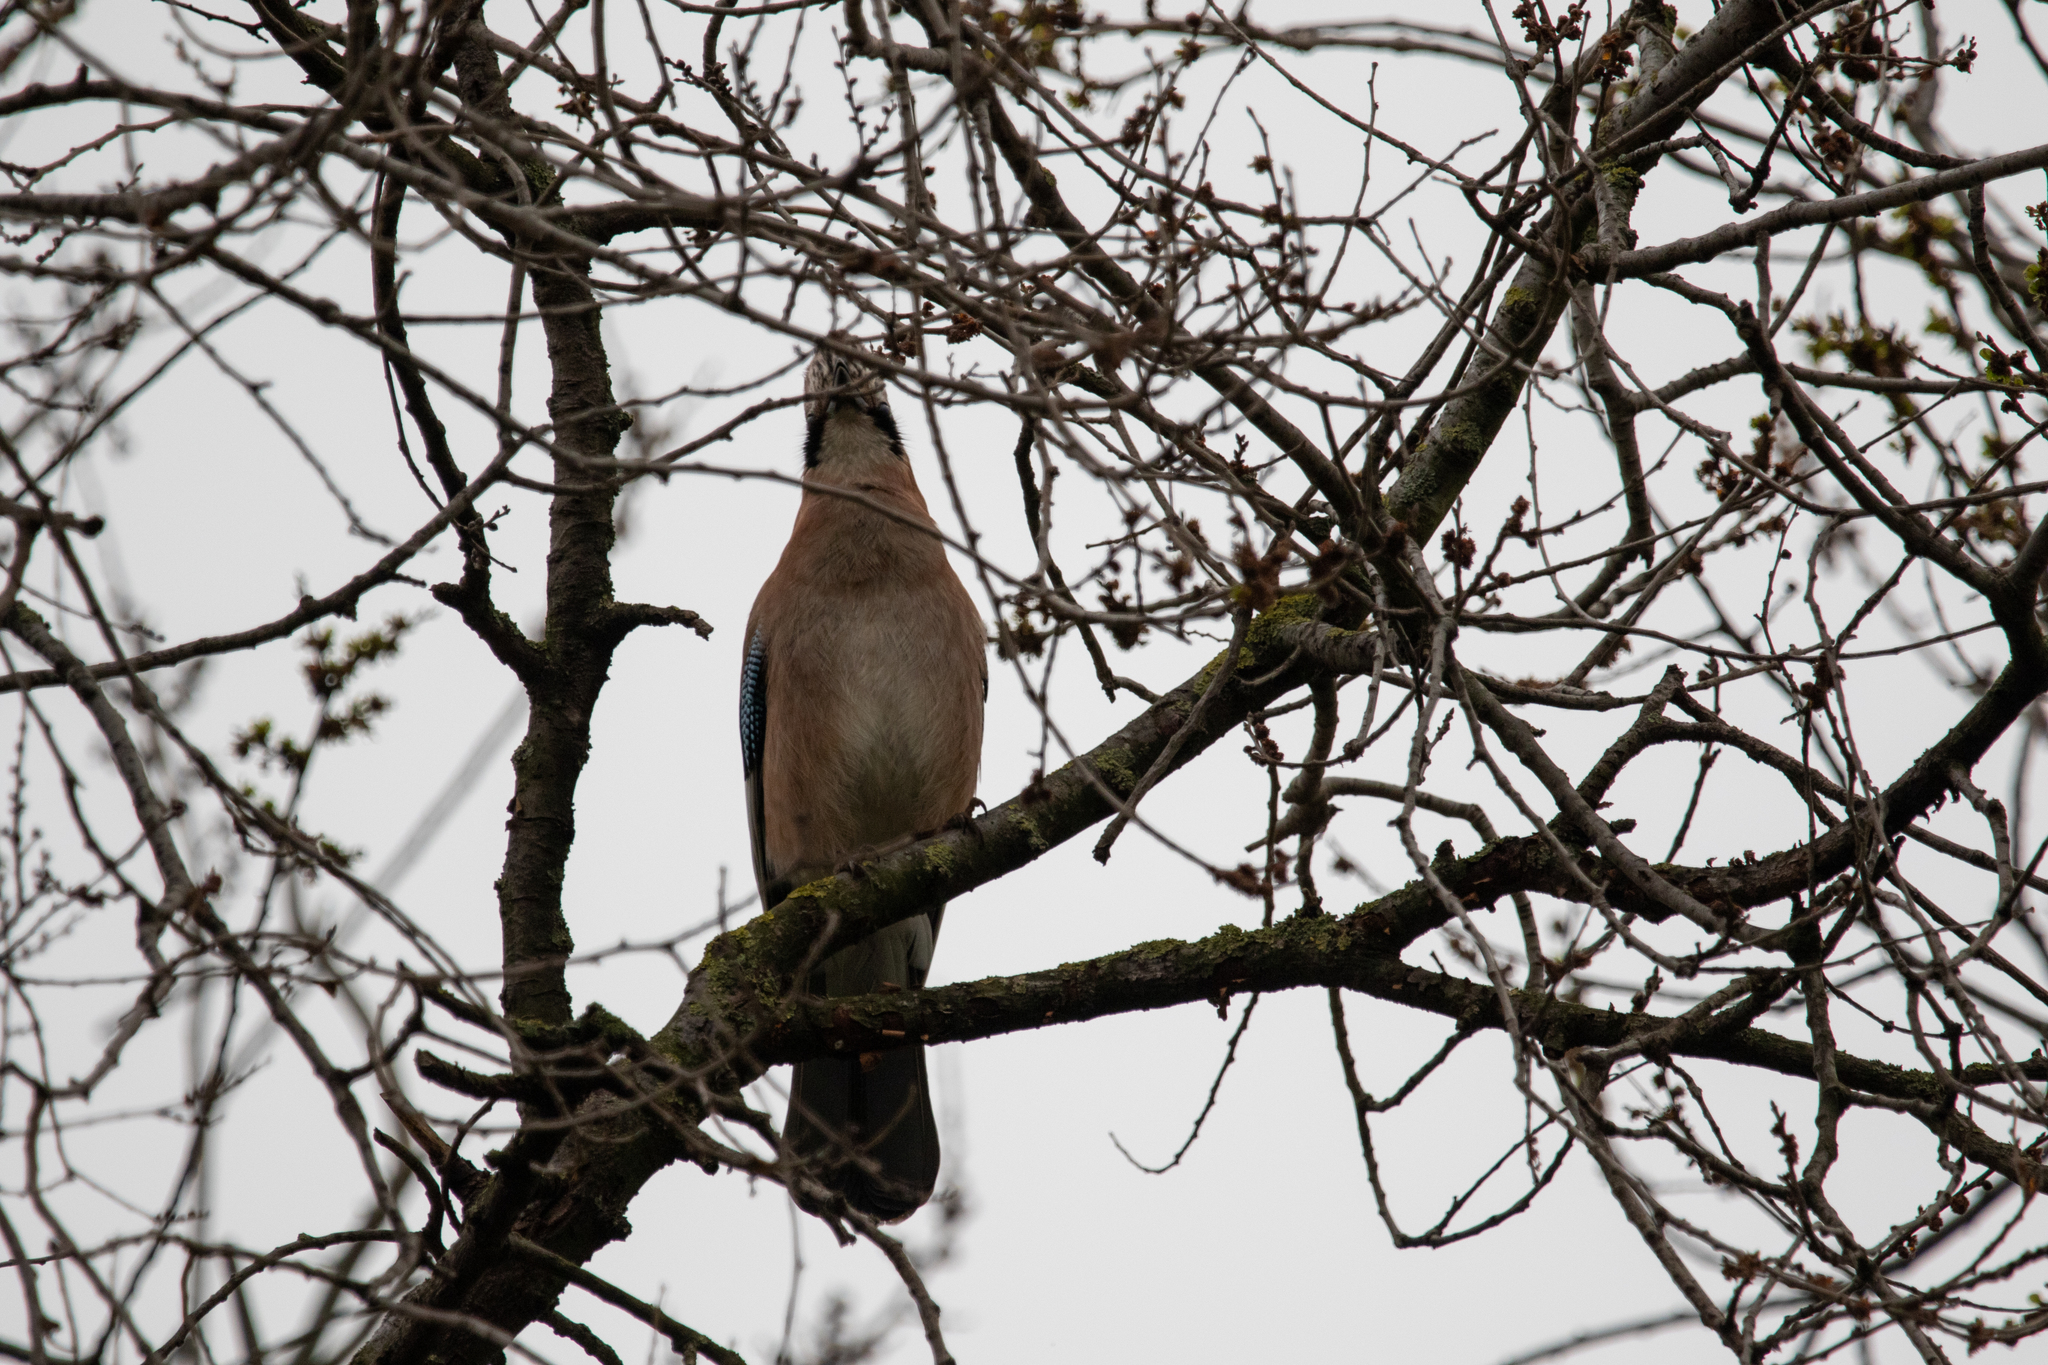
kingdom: Animalia
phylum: Chordata
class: Aves
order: Passeriformes
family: Corvidae
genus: Garrulus
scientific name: Garrulus glandarius
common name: Eurasian jay
